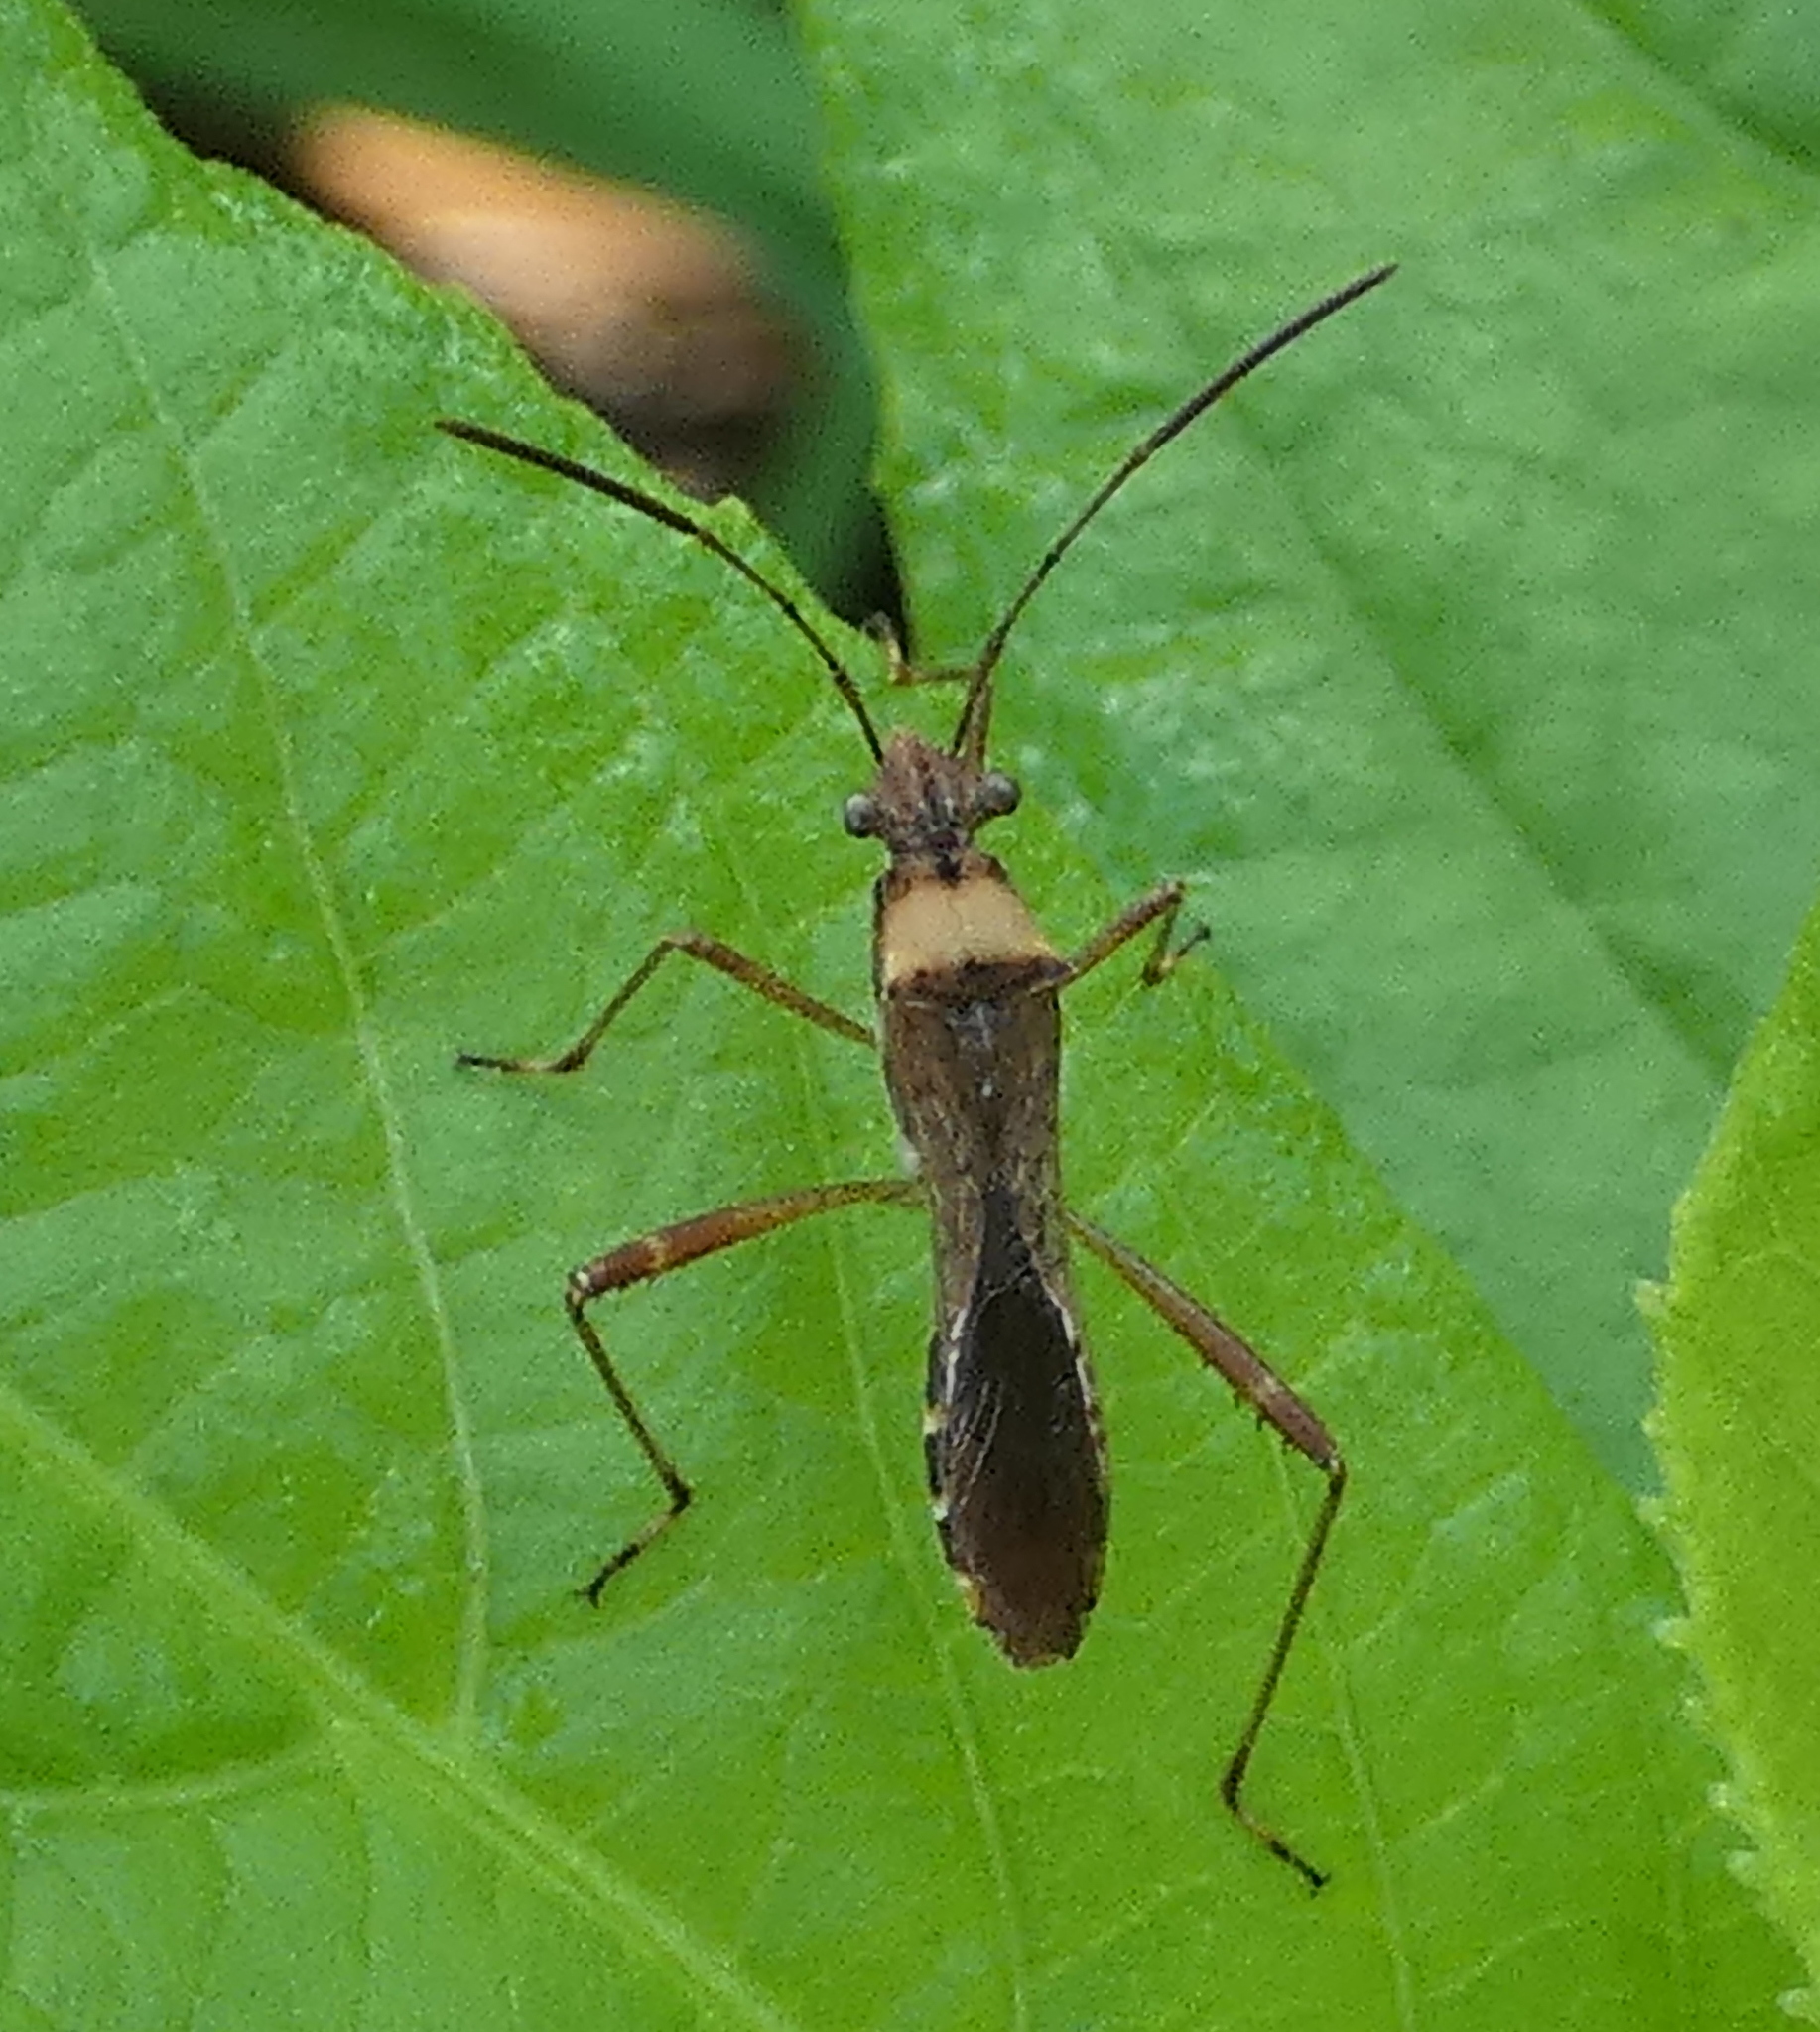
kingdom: Animalia
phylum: Arthropoda
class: Insecta
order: Hemiptera
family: Alydidae
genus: Neomegalotomus
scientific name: Neomegalotomus parvus
